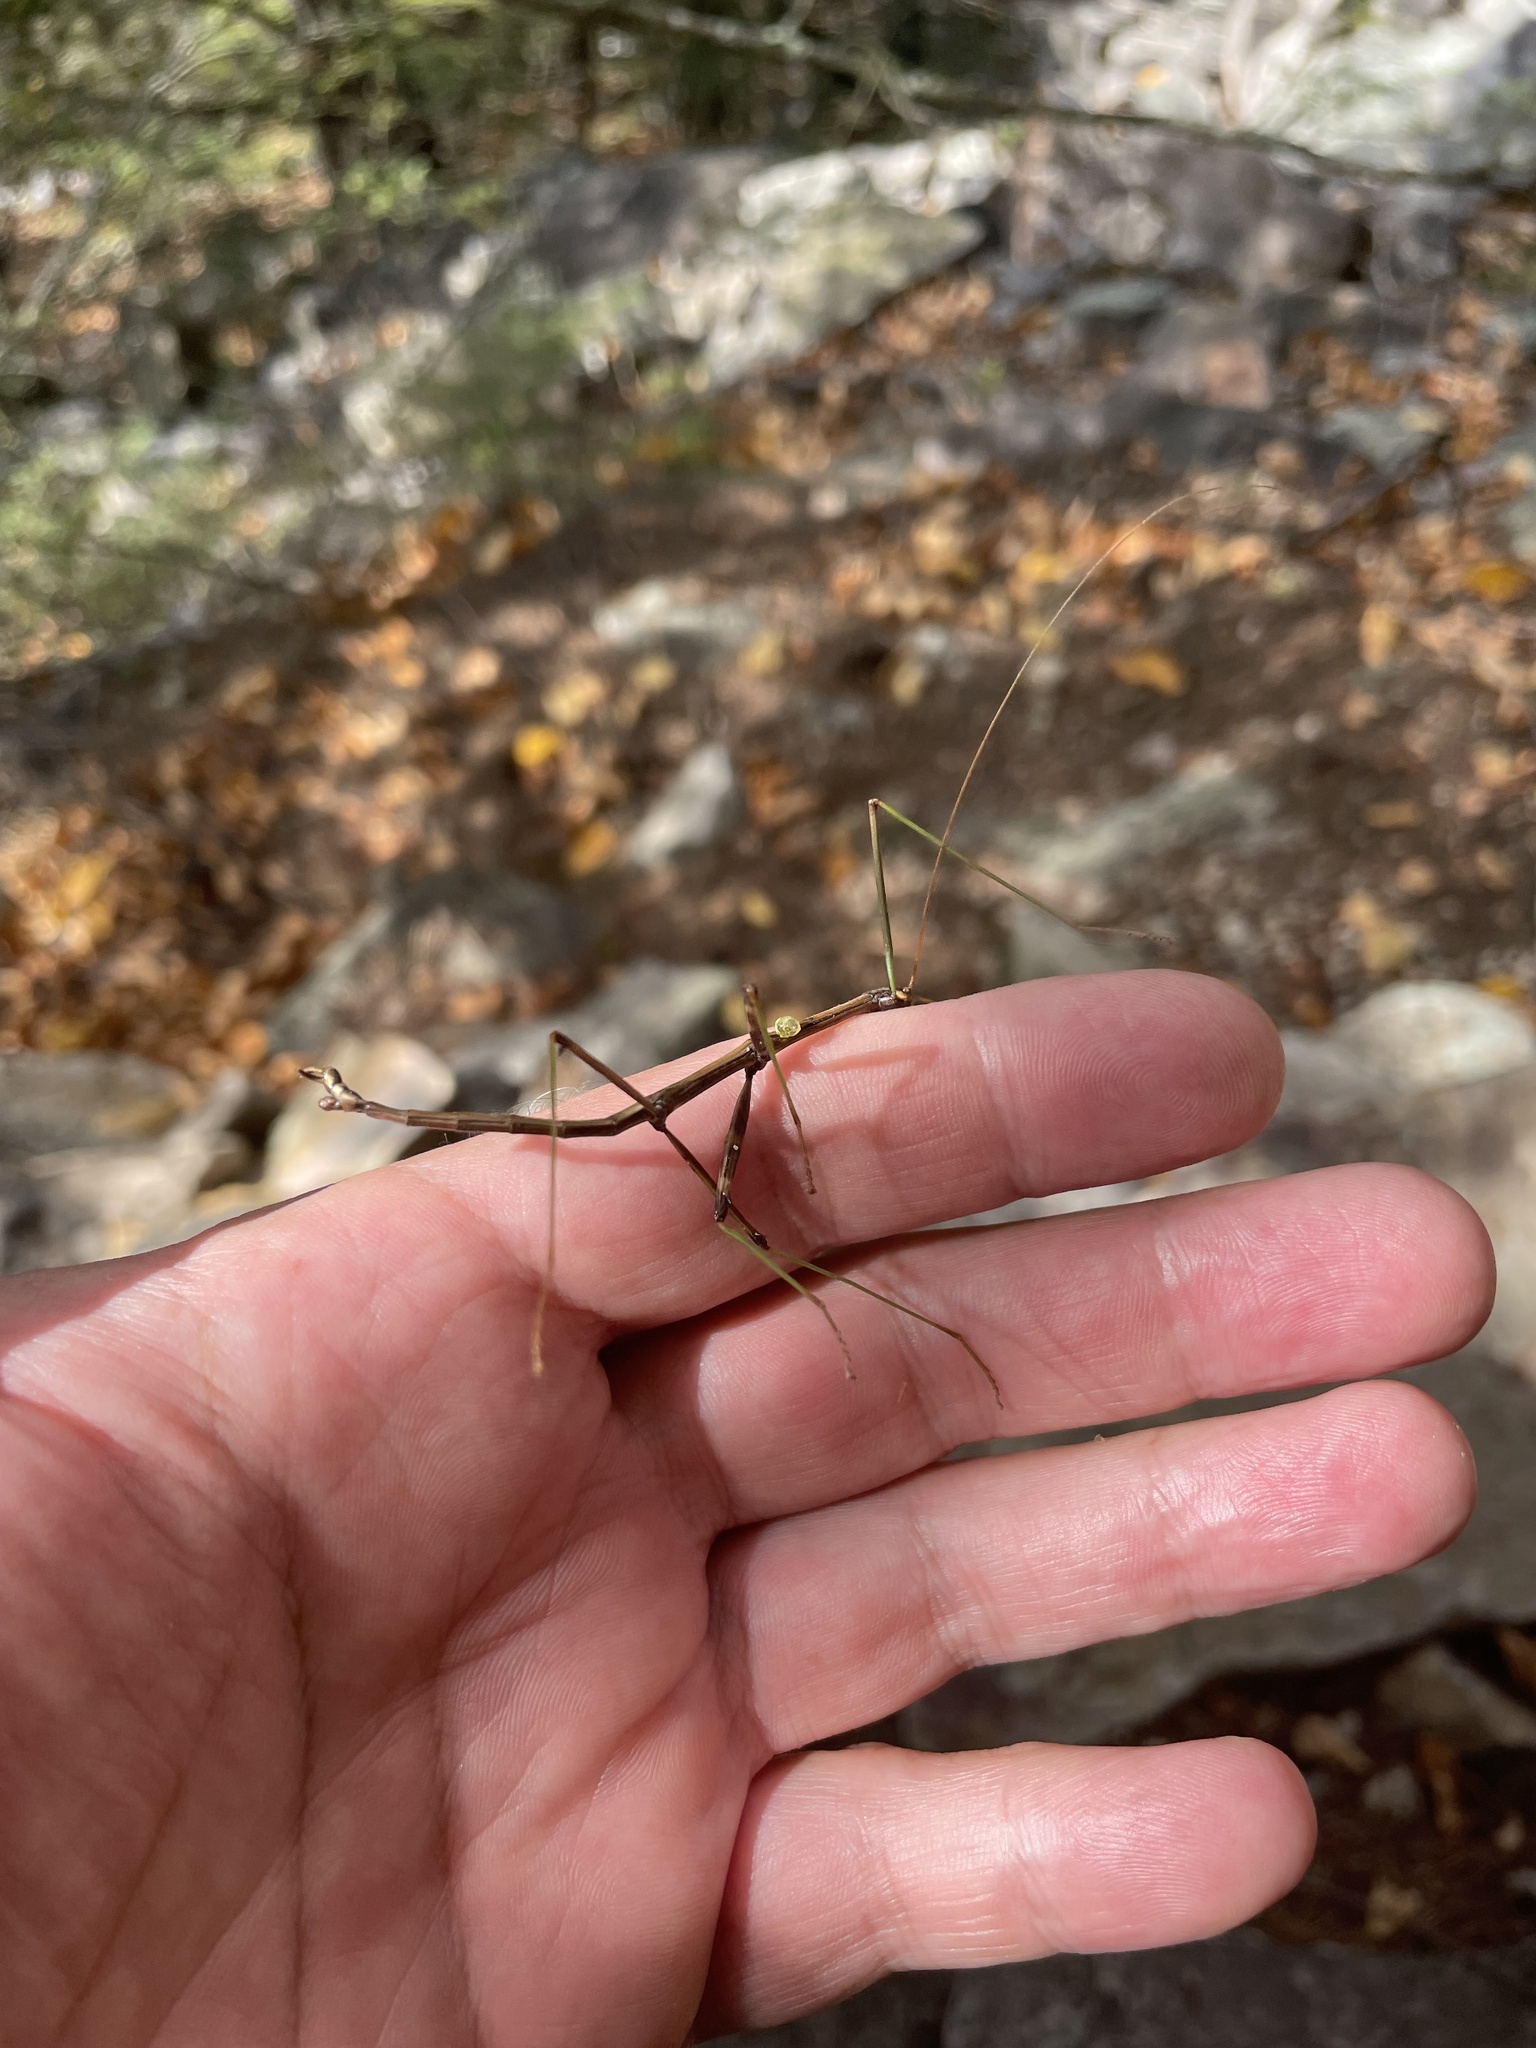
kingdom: Animalia
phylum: Arthropoda
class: Insecta
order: Phasmida
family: Diapheromeridae
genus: Diapheromera
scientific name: Diapheromera femorata
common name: Common american walkingstick
